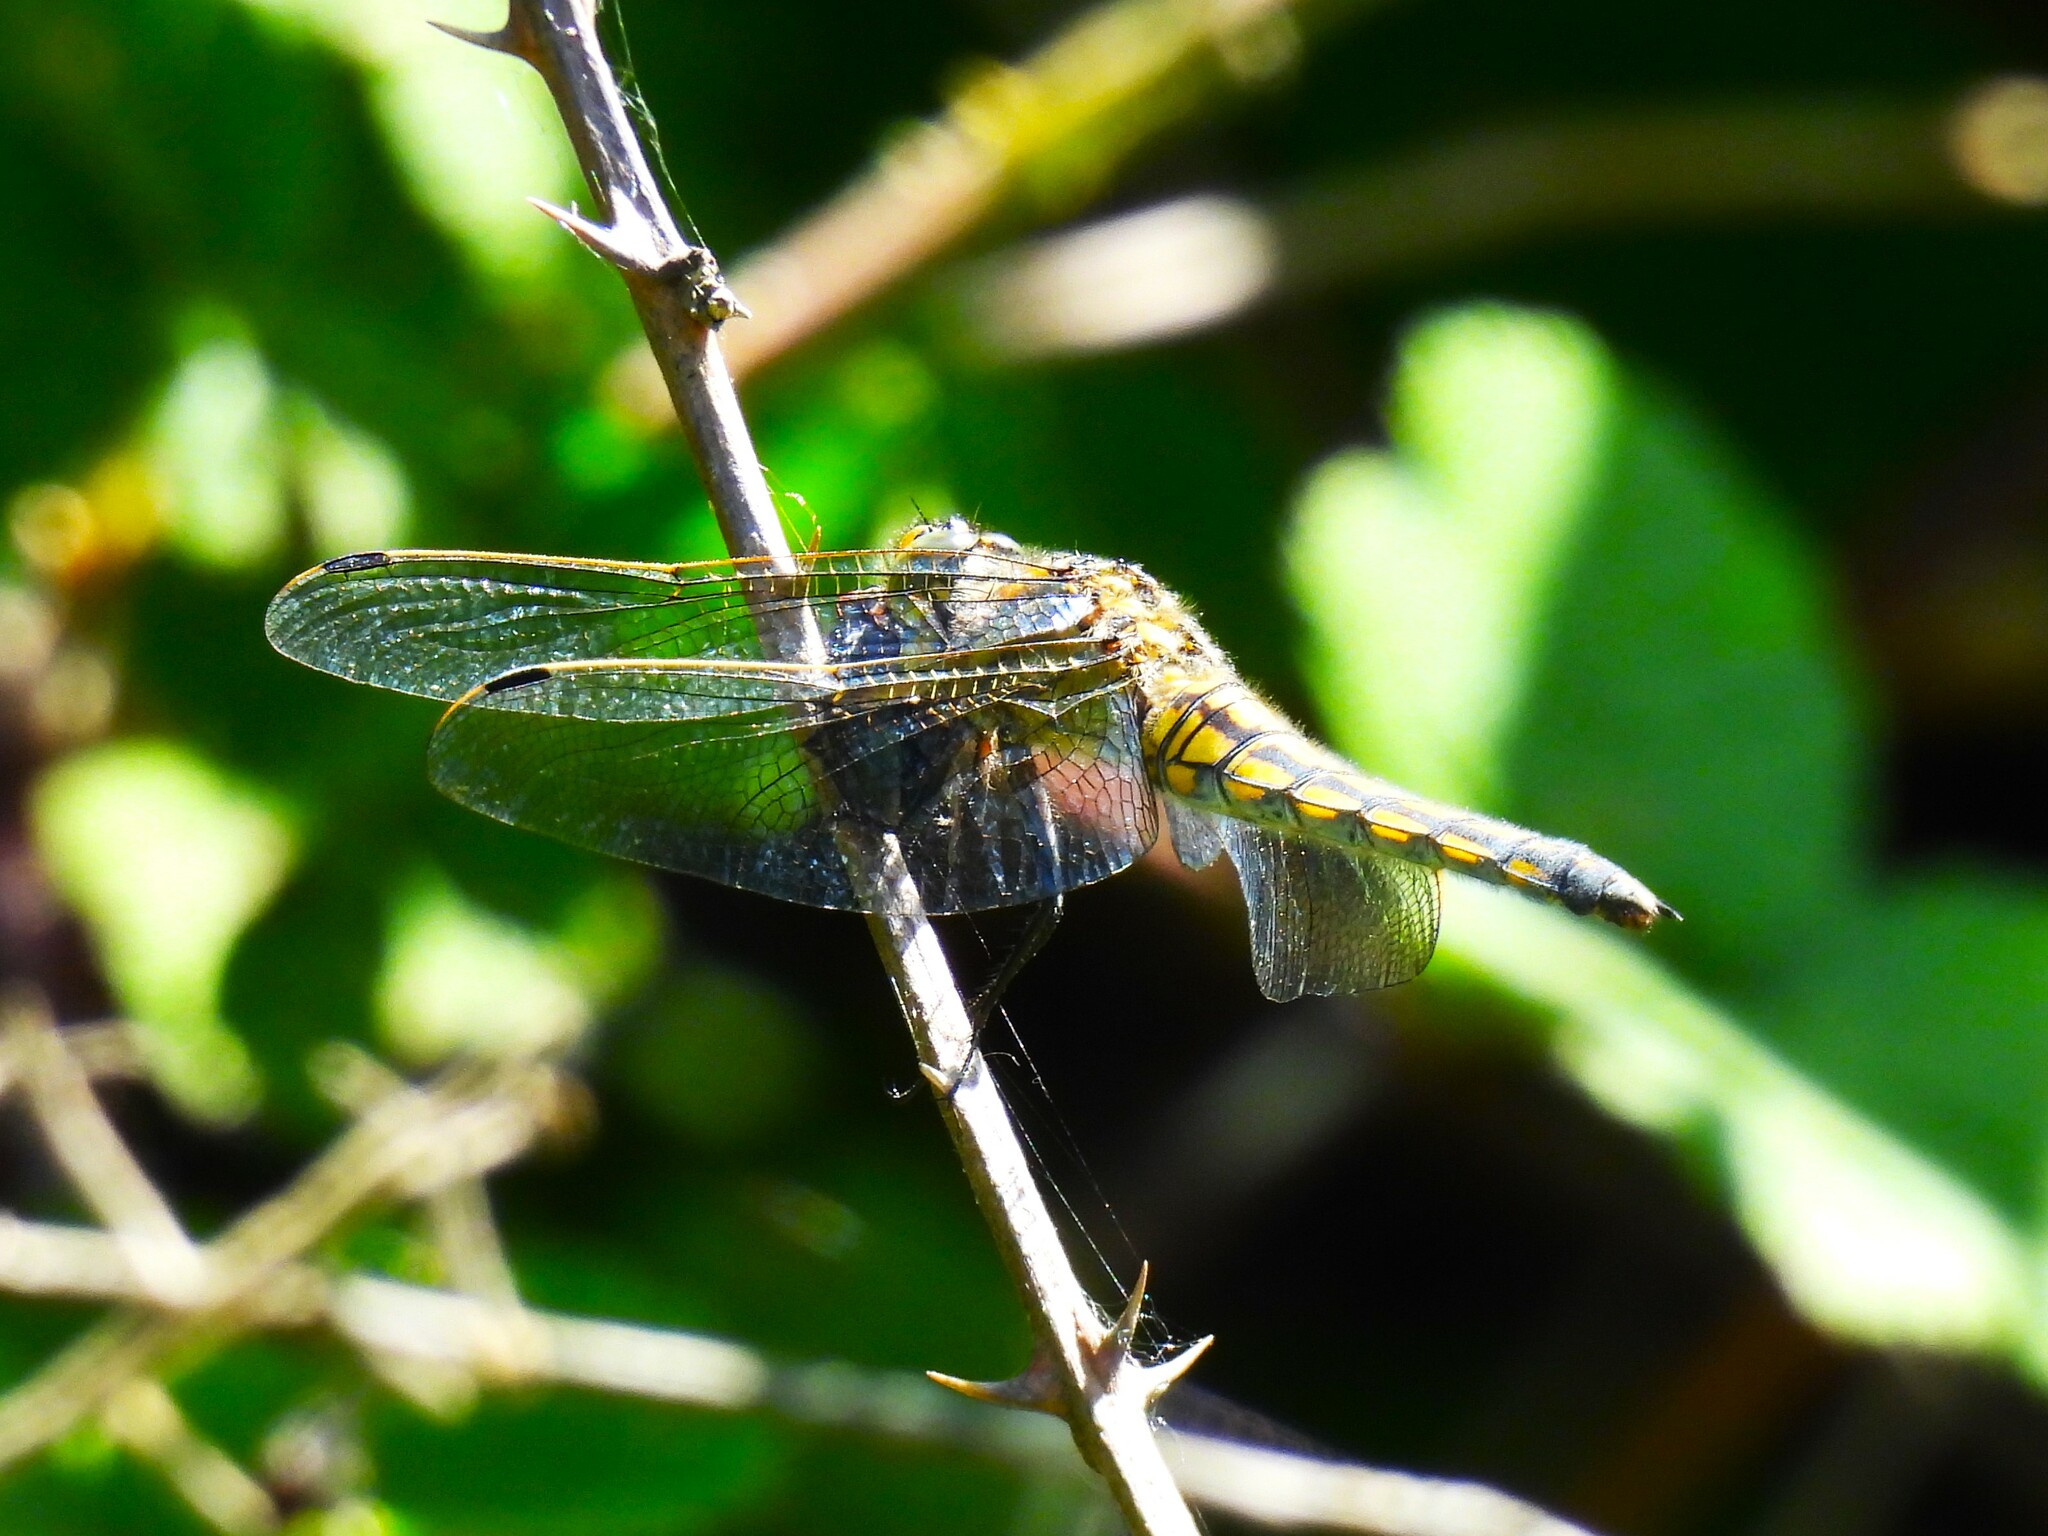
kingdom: Animalia
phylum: Arthropoda
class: Insecta
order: Odonata
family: Libellulidae
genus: Orthetrum
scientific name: Orthetrum cancellatum
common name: Black-tailed skimmer
